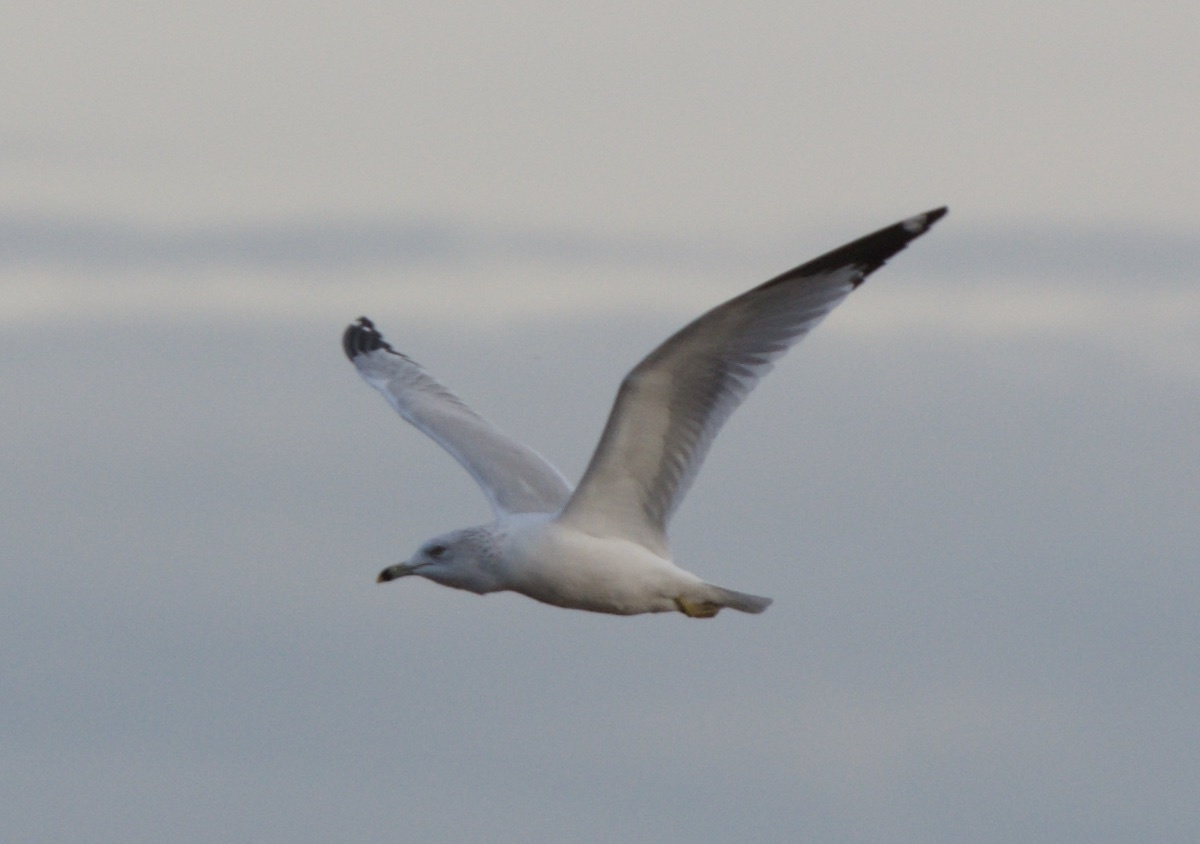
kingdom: Animalia
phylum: Chordata
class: Aves
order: Charadriiformes
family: Laridae
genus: Larus
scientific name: Larus delawarensis
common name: Ring-billed gull
